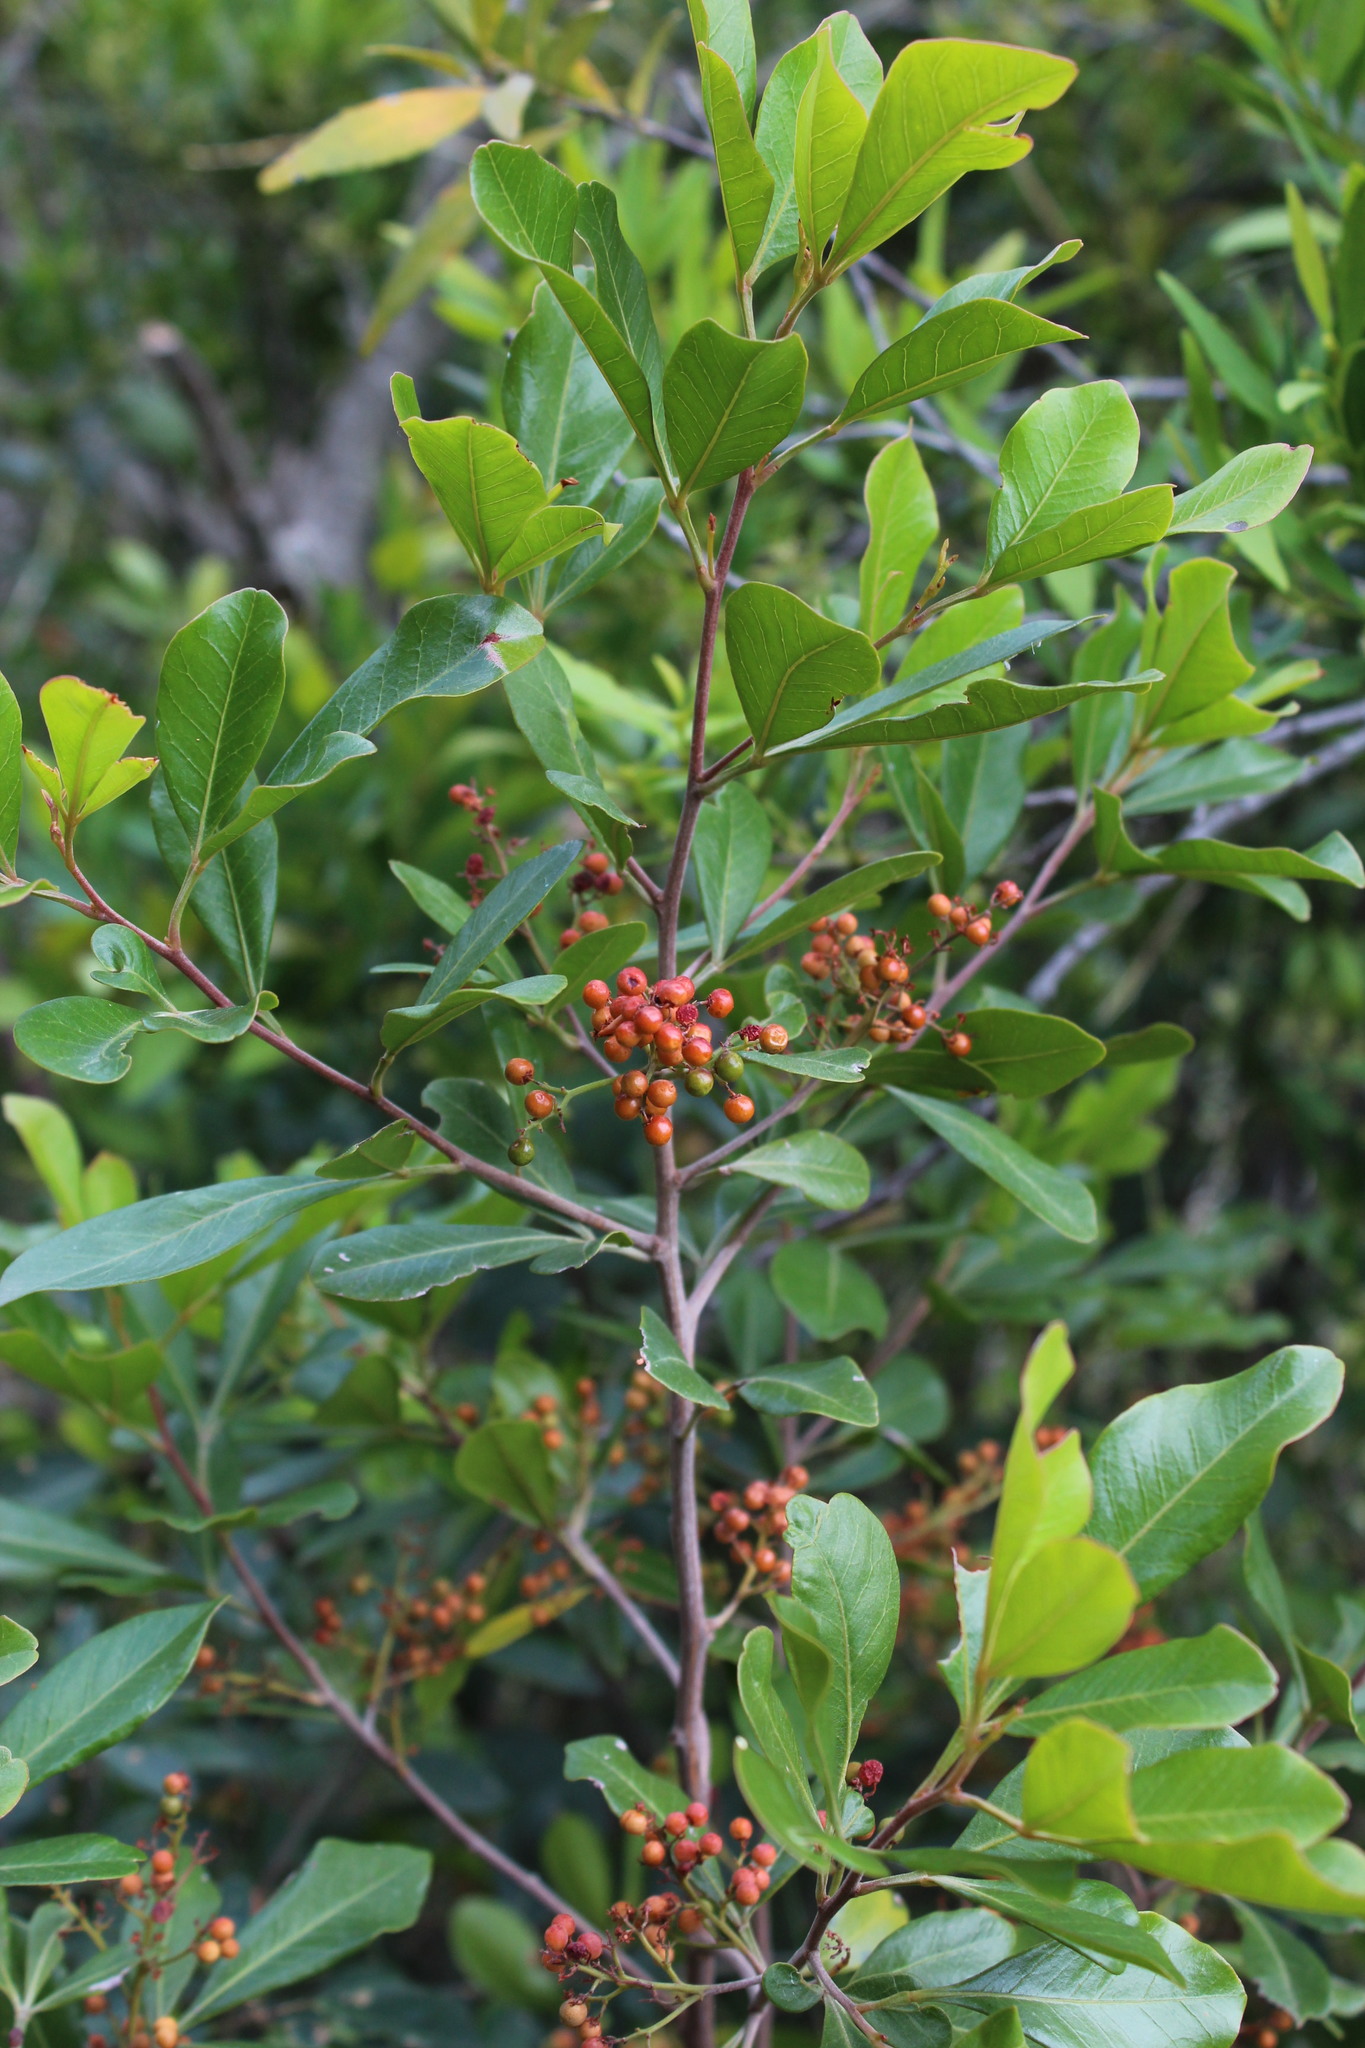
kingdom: Plantae
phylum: Tracheophyta
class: Magnoliopsida
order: Sapindales
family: Anacardiaceae
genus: Searsia
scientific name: Searsia lucida
